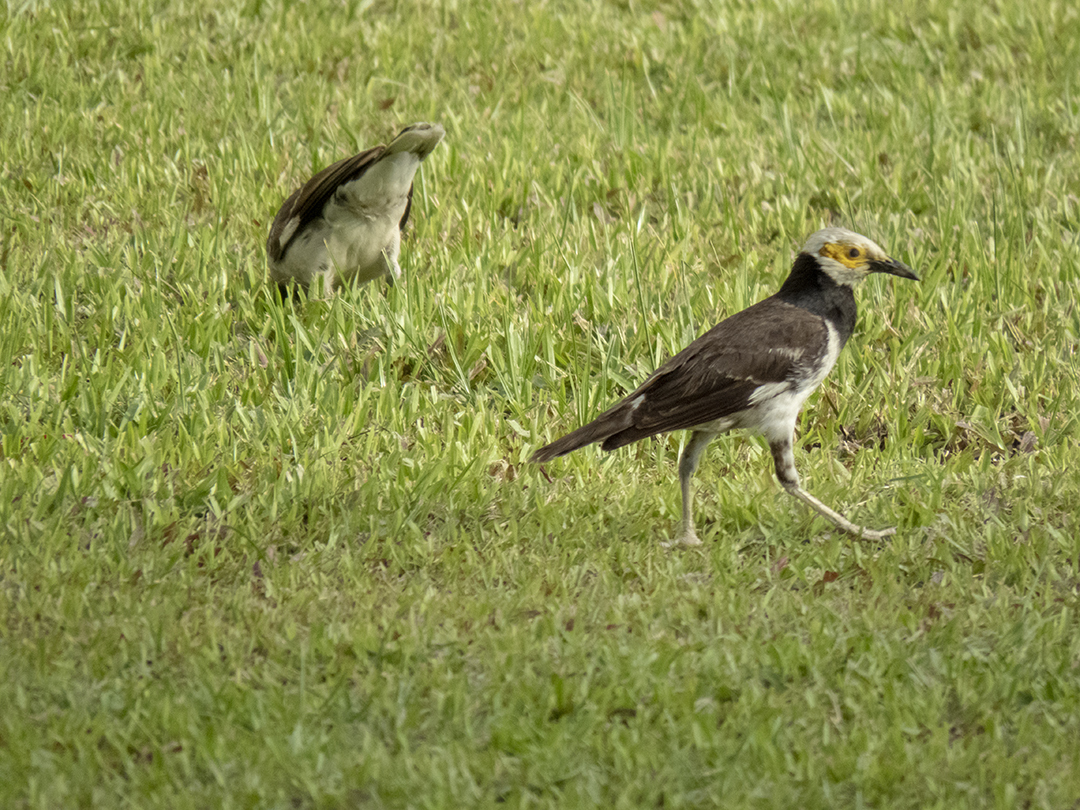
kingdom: Animalia
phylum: Chordata
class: Aves
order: Passeriformes
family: Sturnidae
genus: Gracupica
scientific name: Gracupica nigricollis
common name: Black-collared starling
